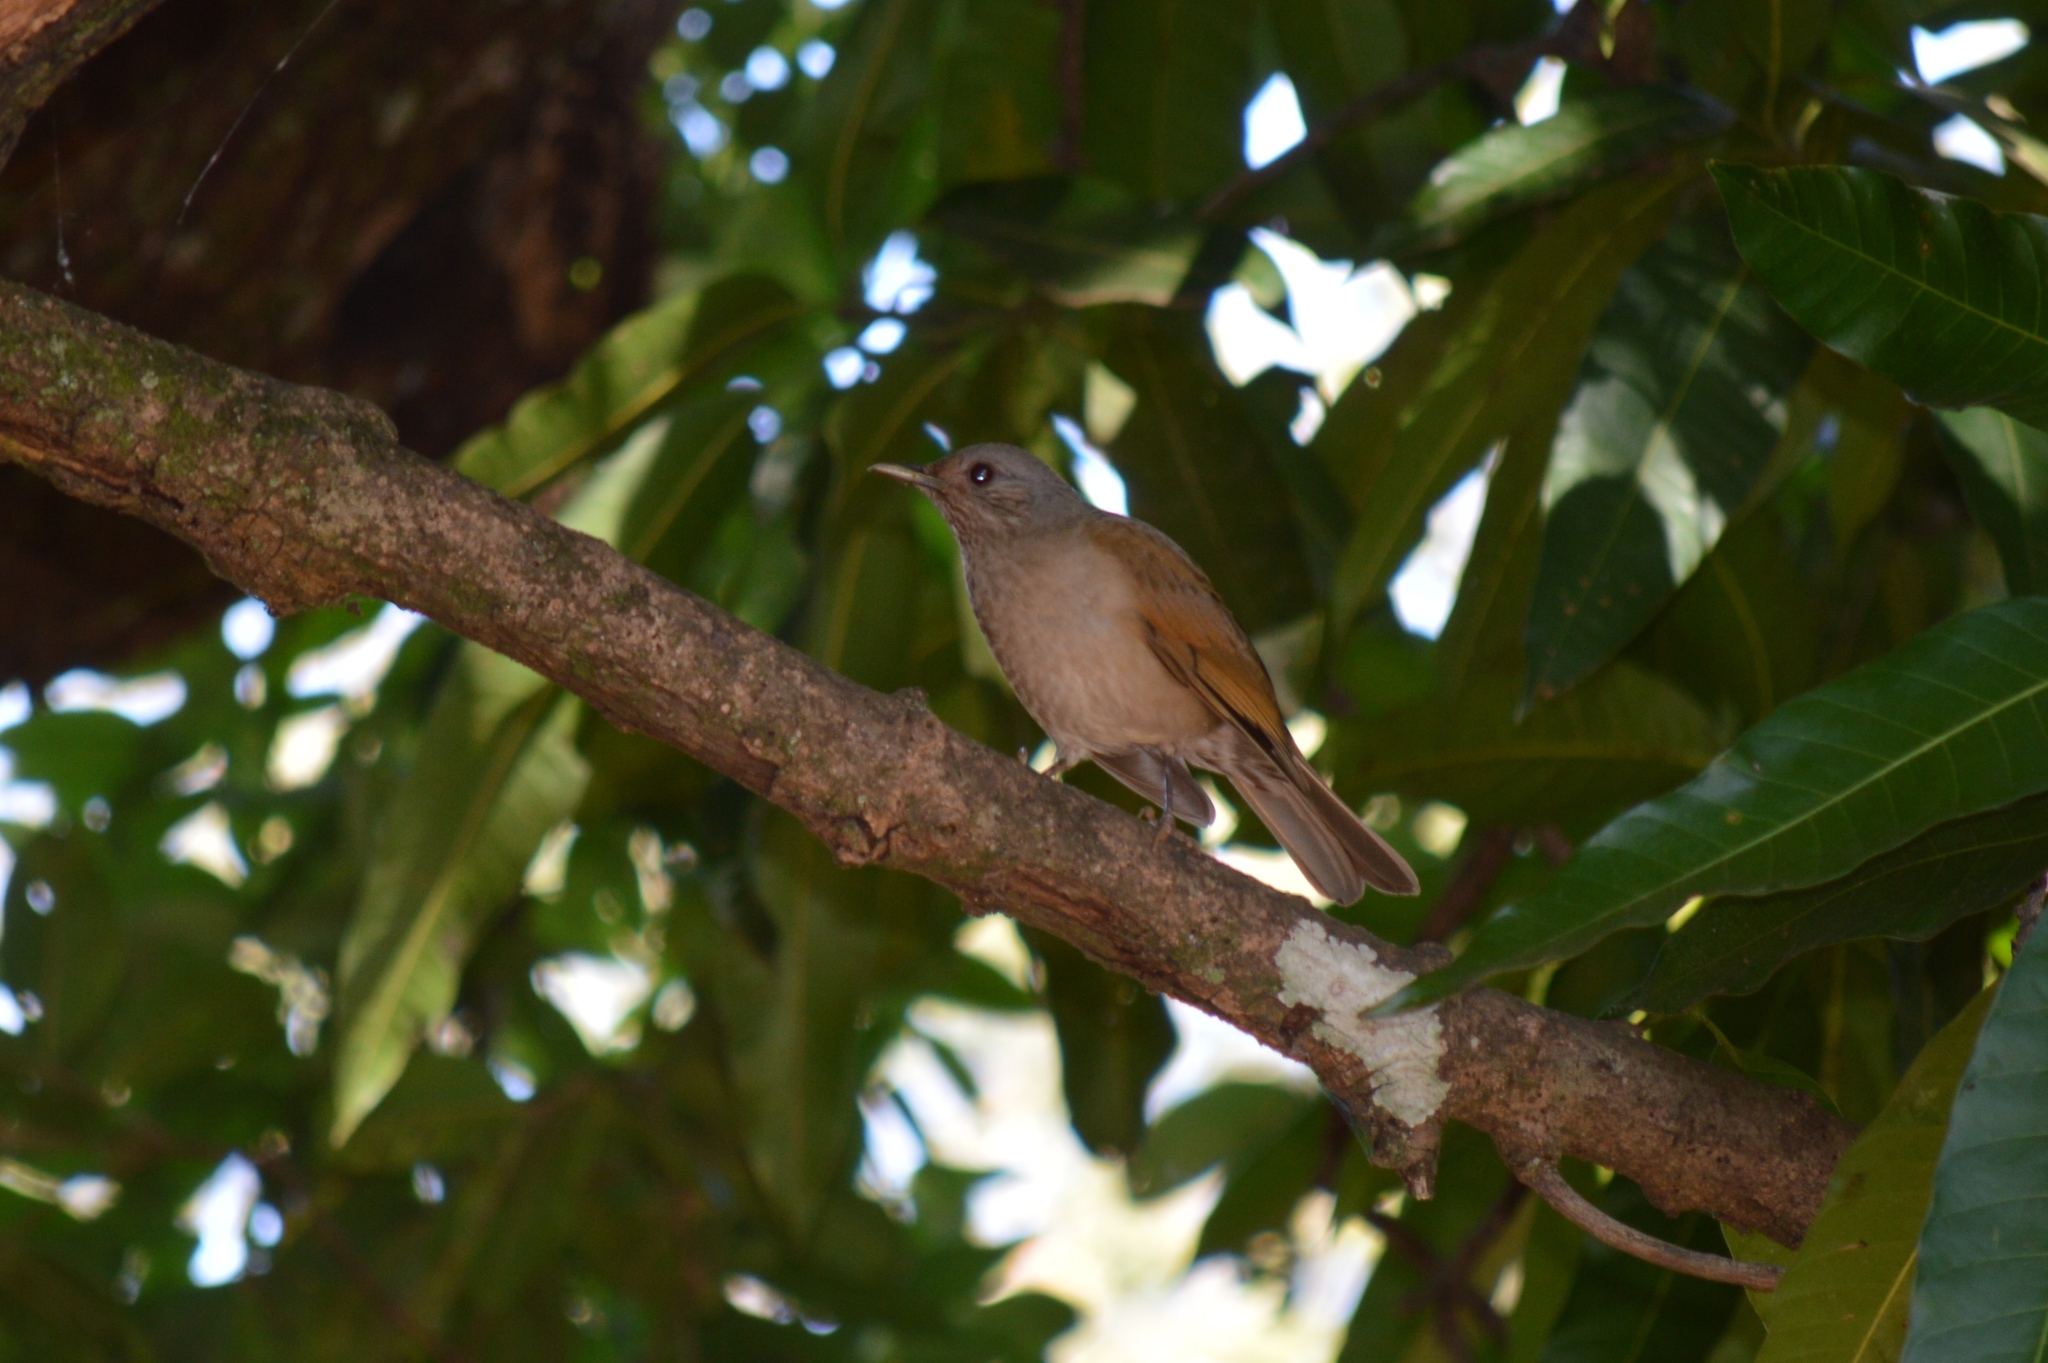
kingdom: Animalia
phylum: Chordata
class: Aves
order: Passeriformes
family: Turdidae
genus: Turdus
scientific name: Turdus leucomelas
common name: Pale-breasted thrush
